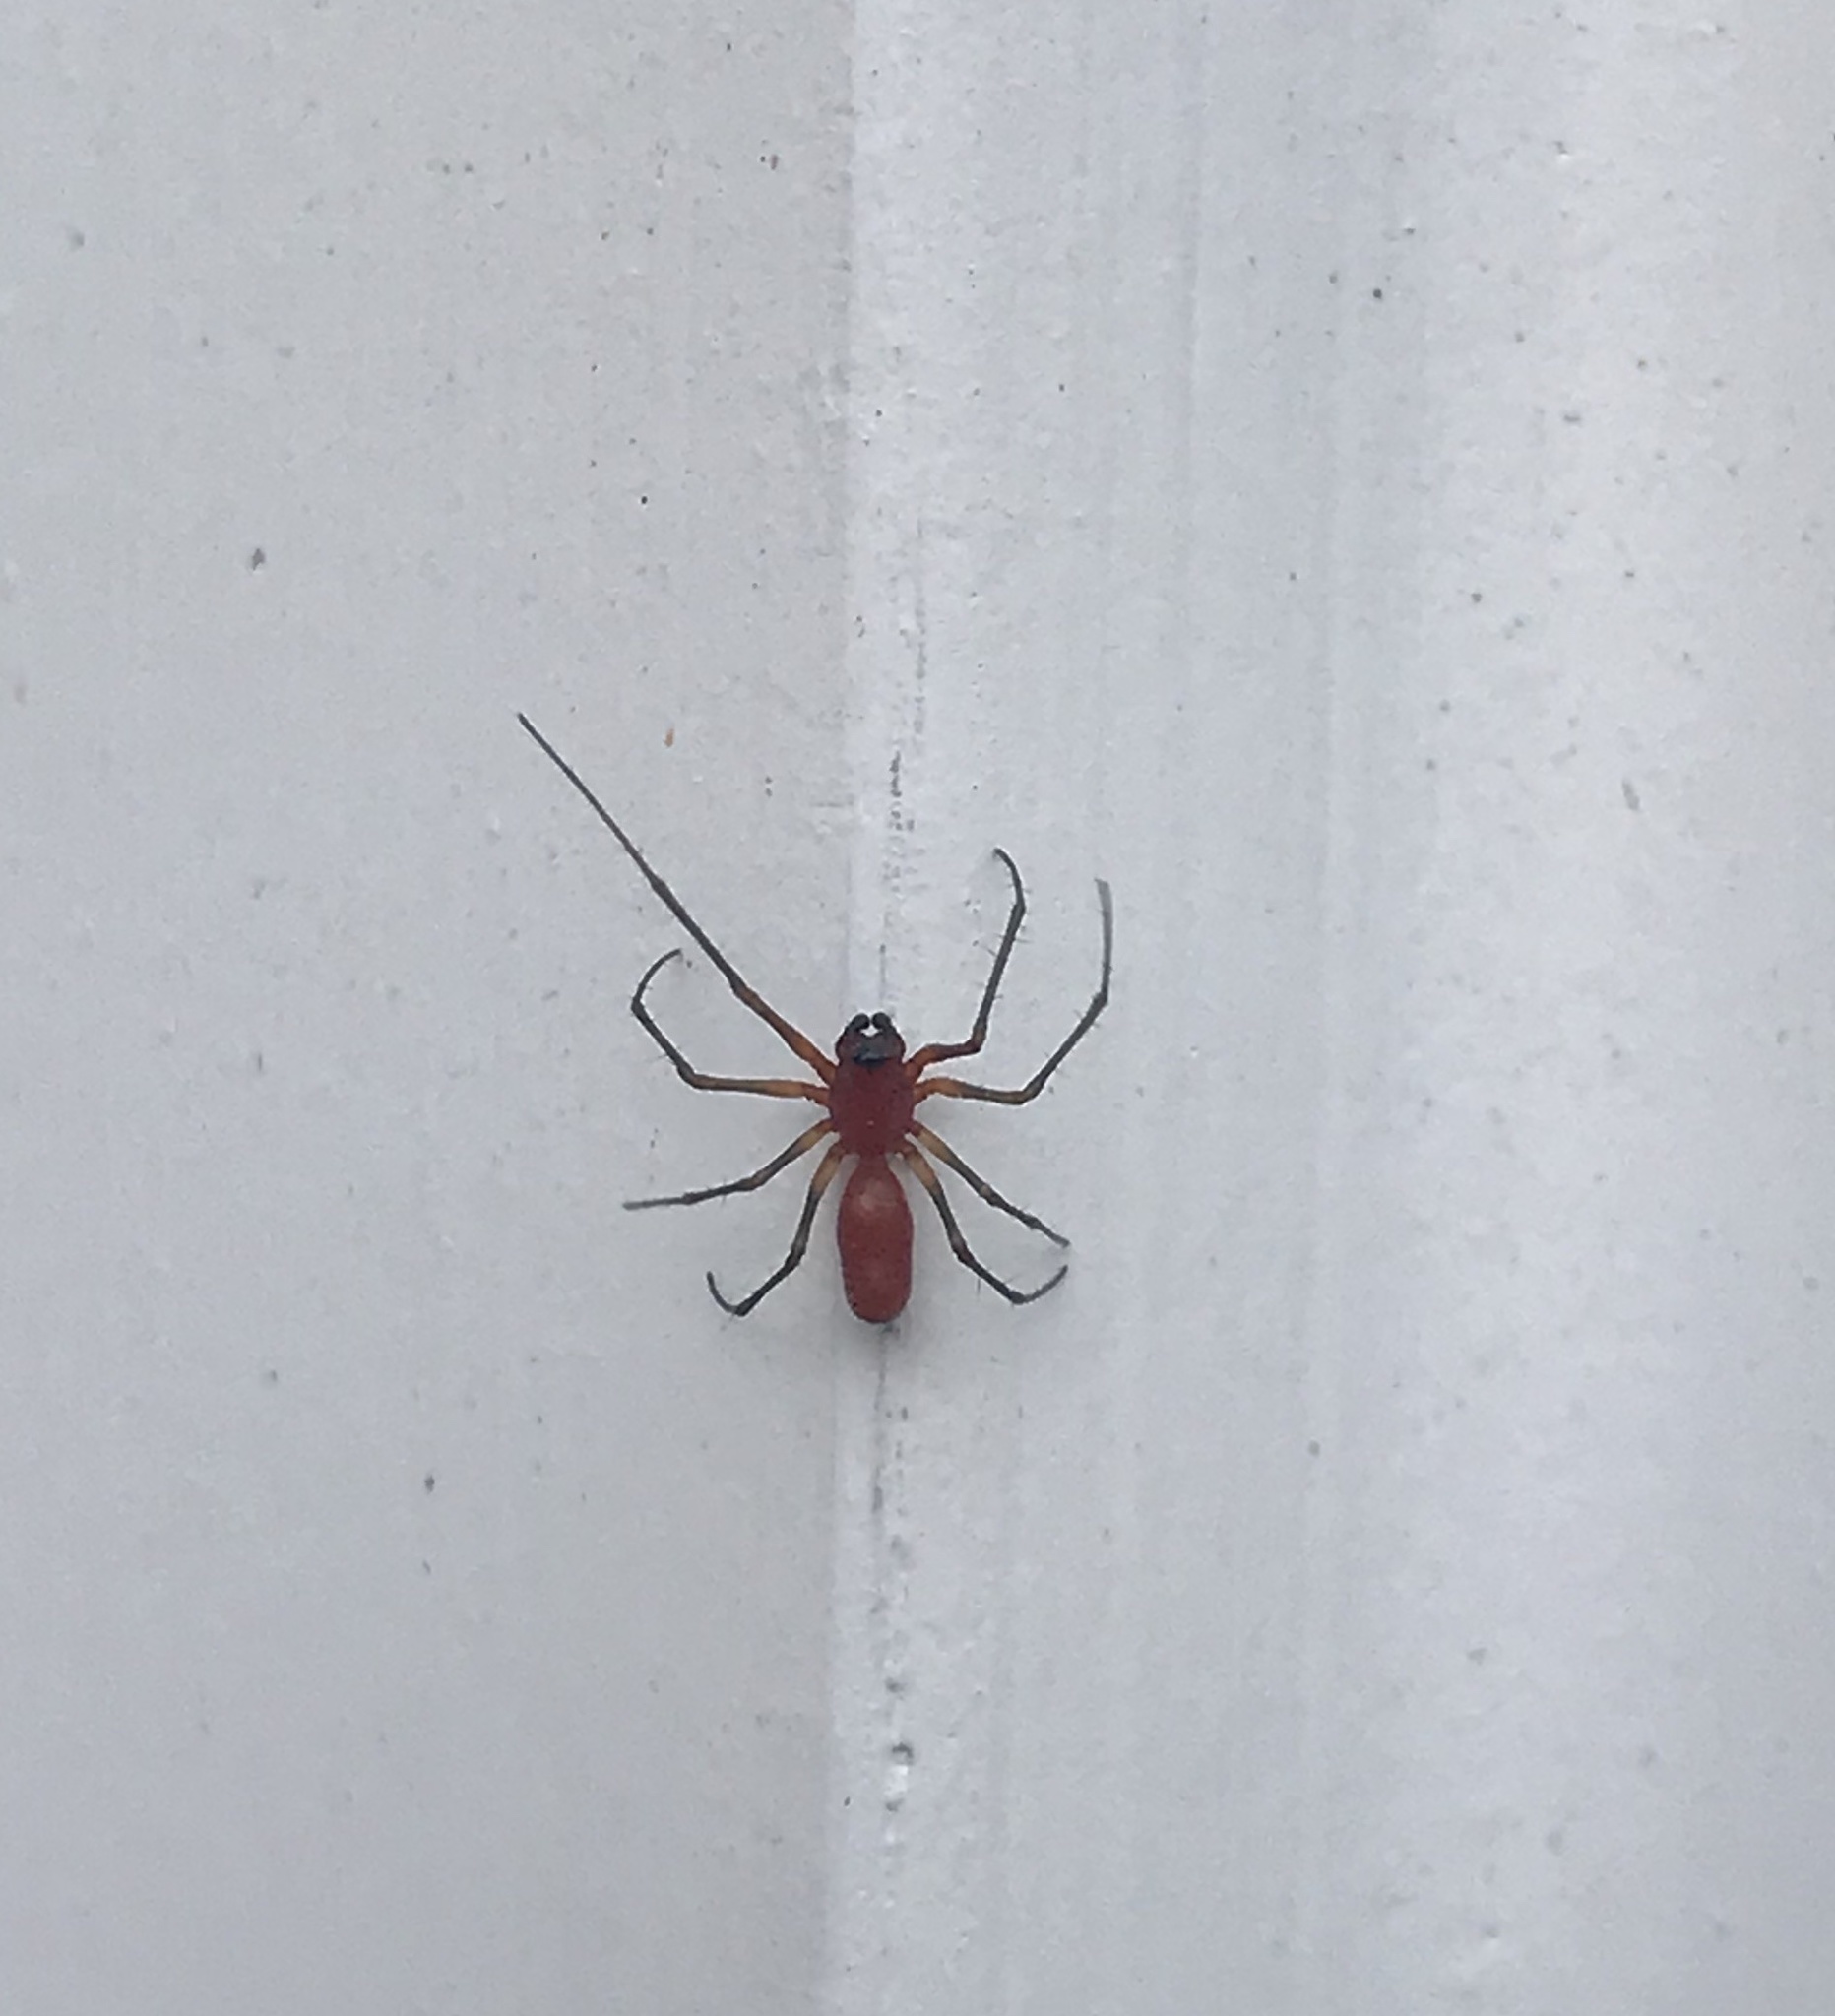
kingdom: Animalia
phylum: Arthropoda
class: Arachnida
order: Araneae
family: Linyphiidae
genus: Florinda
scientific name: Florinda coccinea
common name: Black-tailed red sheetweaver
